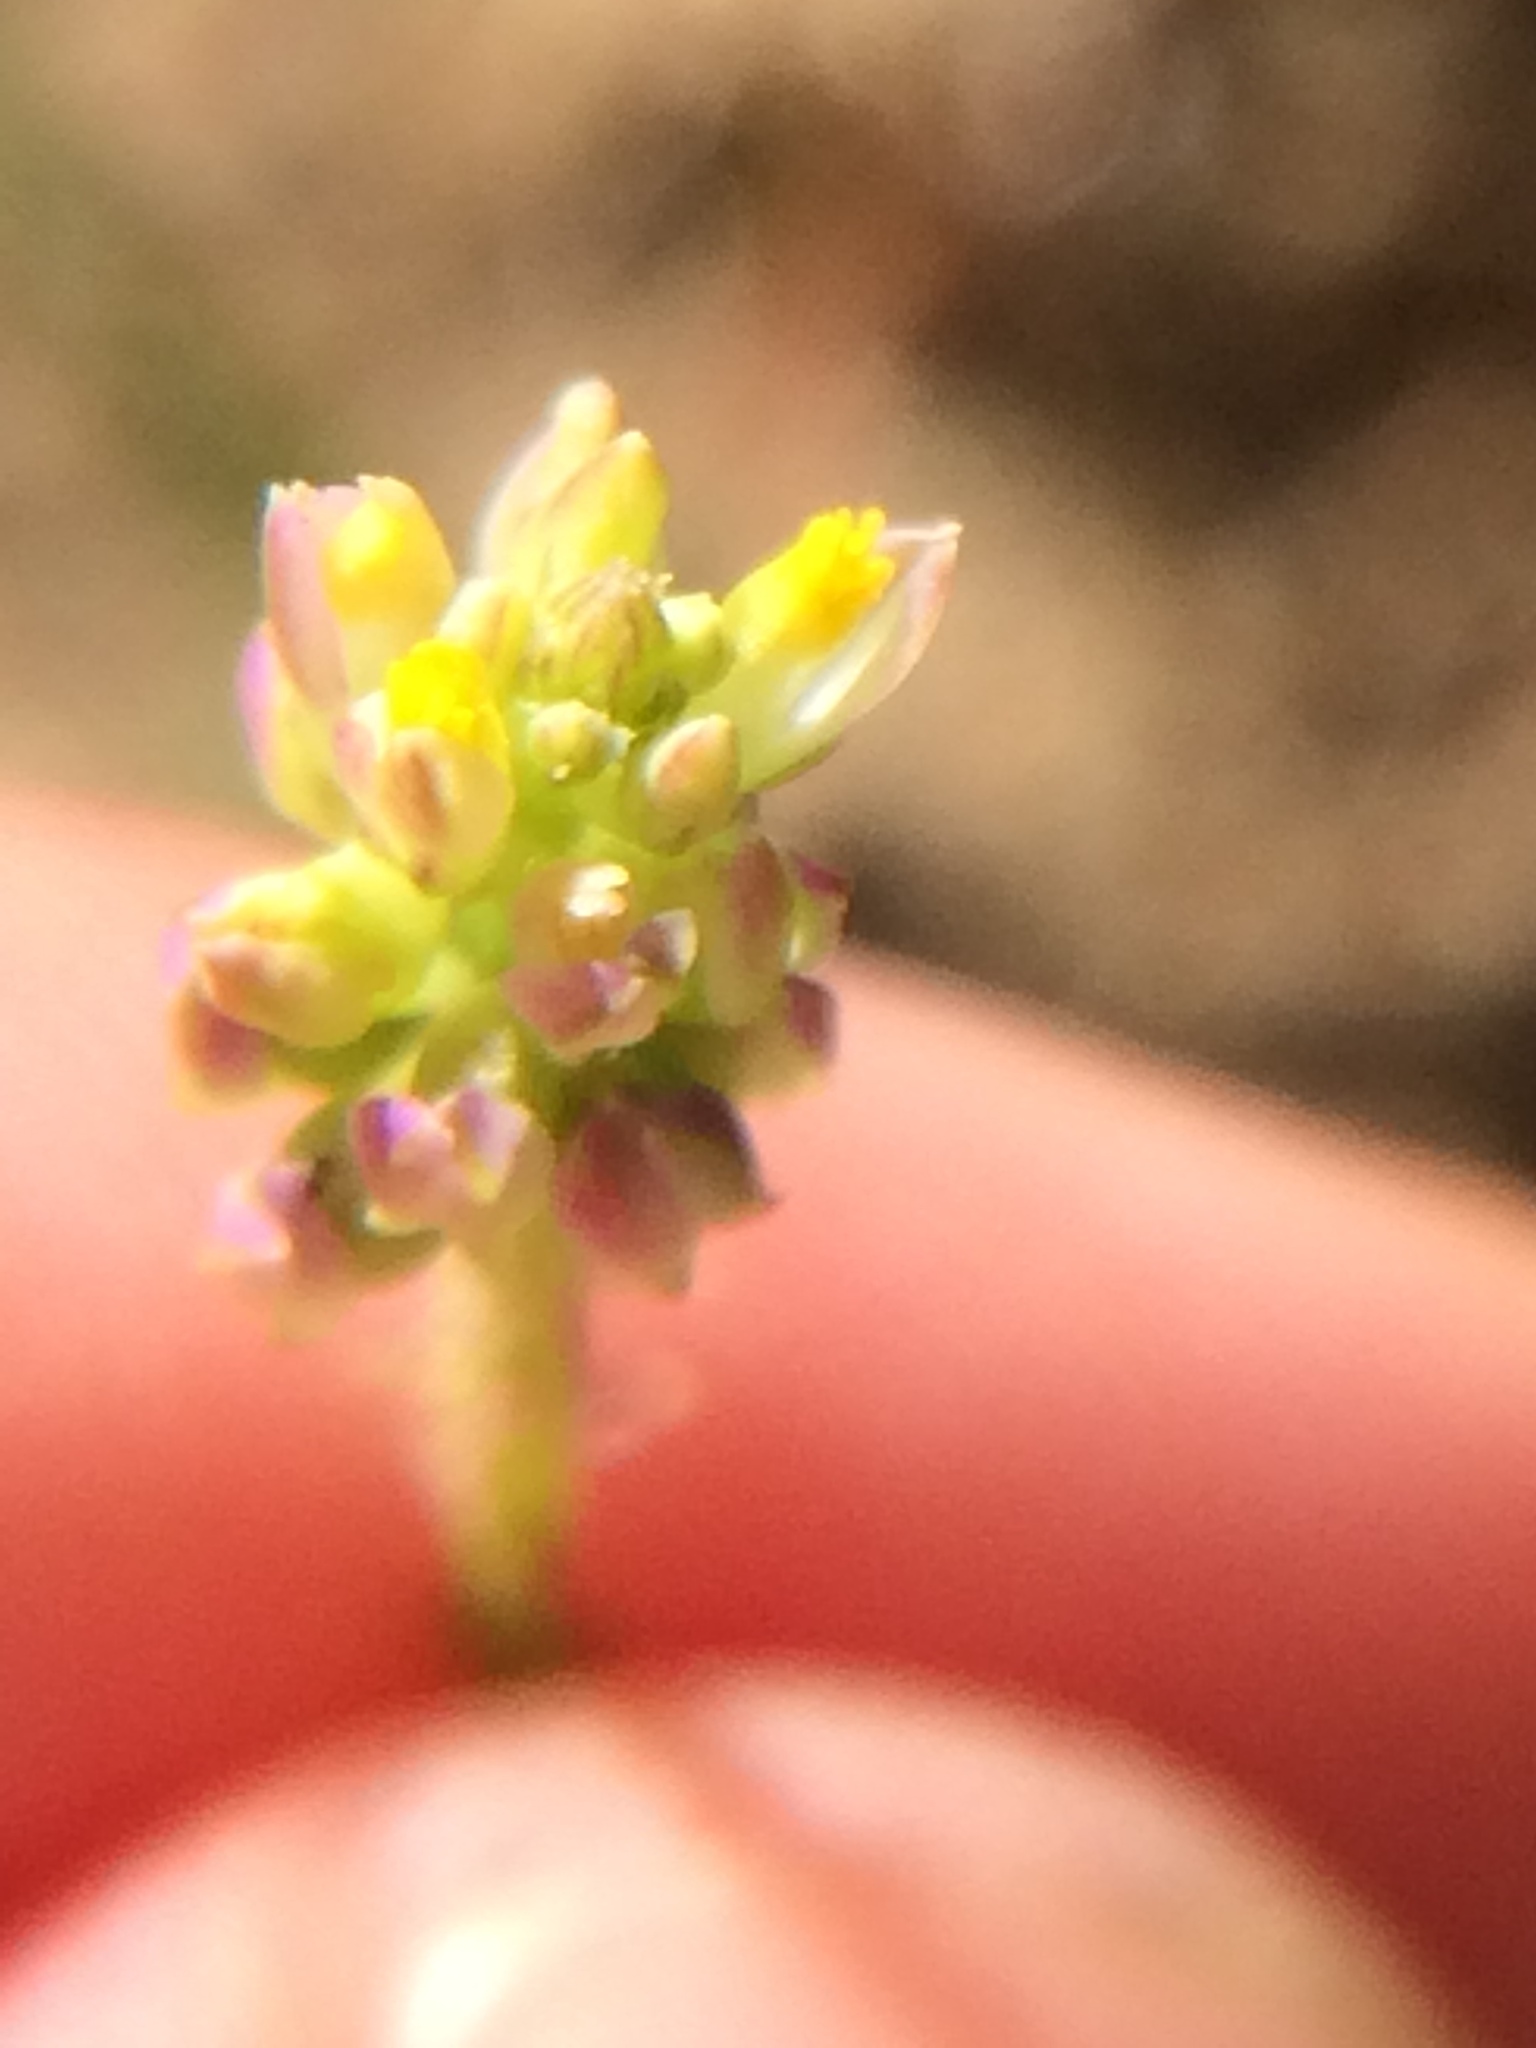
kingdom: Plantae
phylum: Tracheophyta
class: Magnoliopsida
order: Fabales
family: Polygalaceae
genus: Polygala
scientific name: Polygala nuttallii
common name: Nuttall's milkwort
